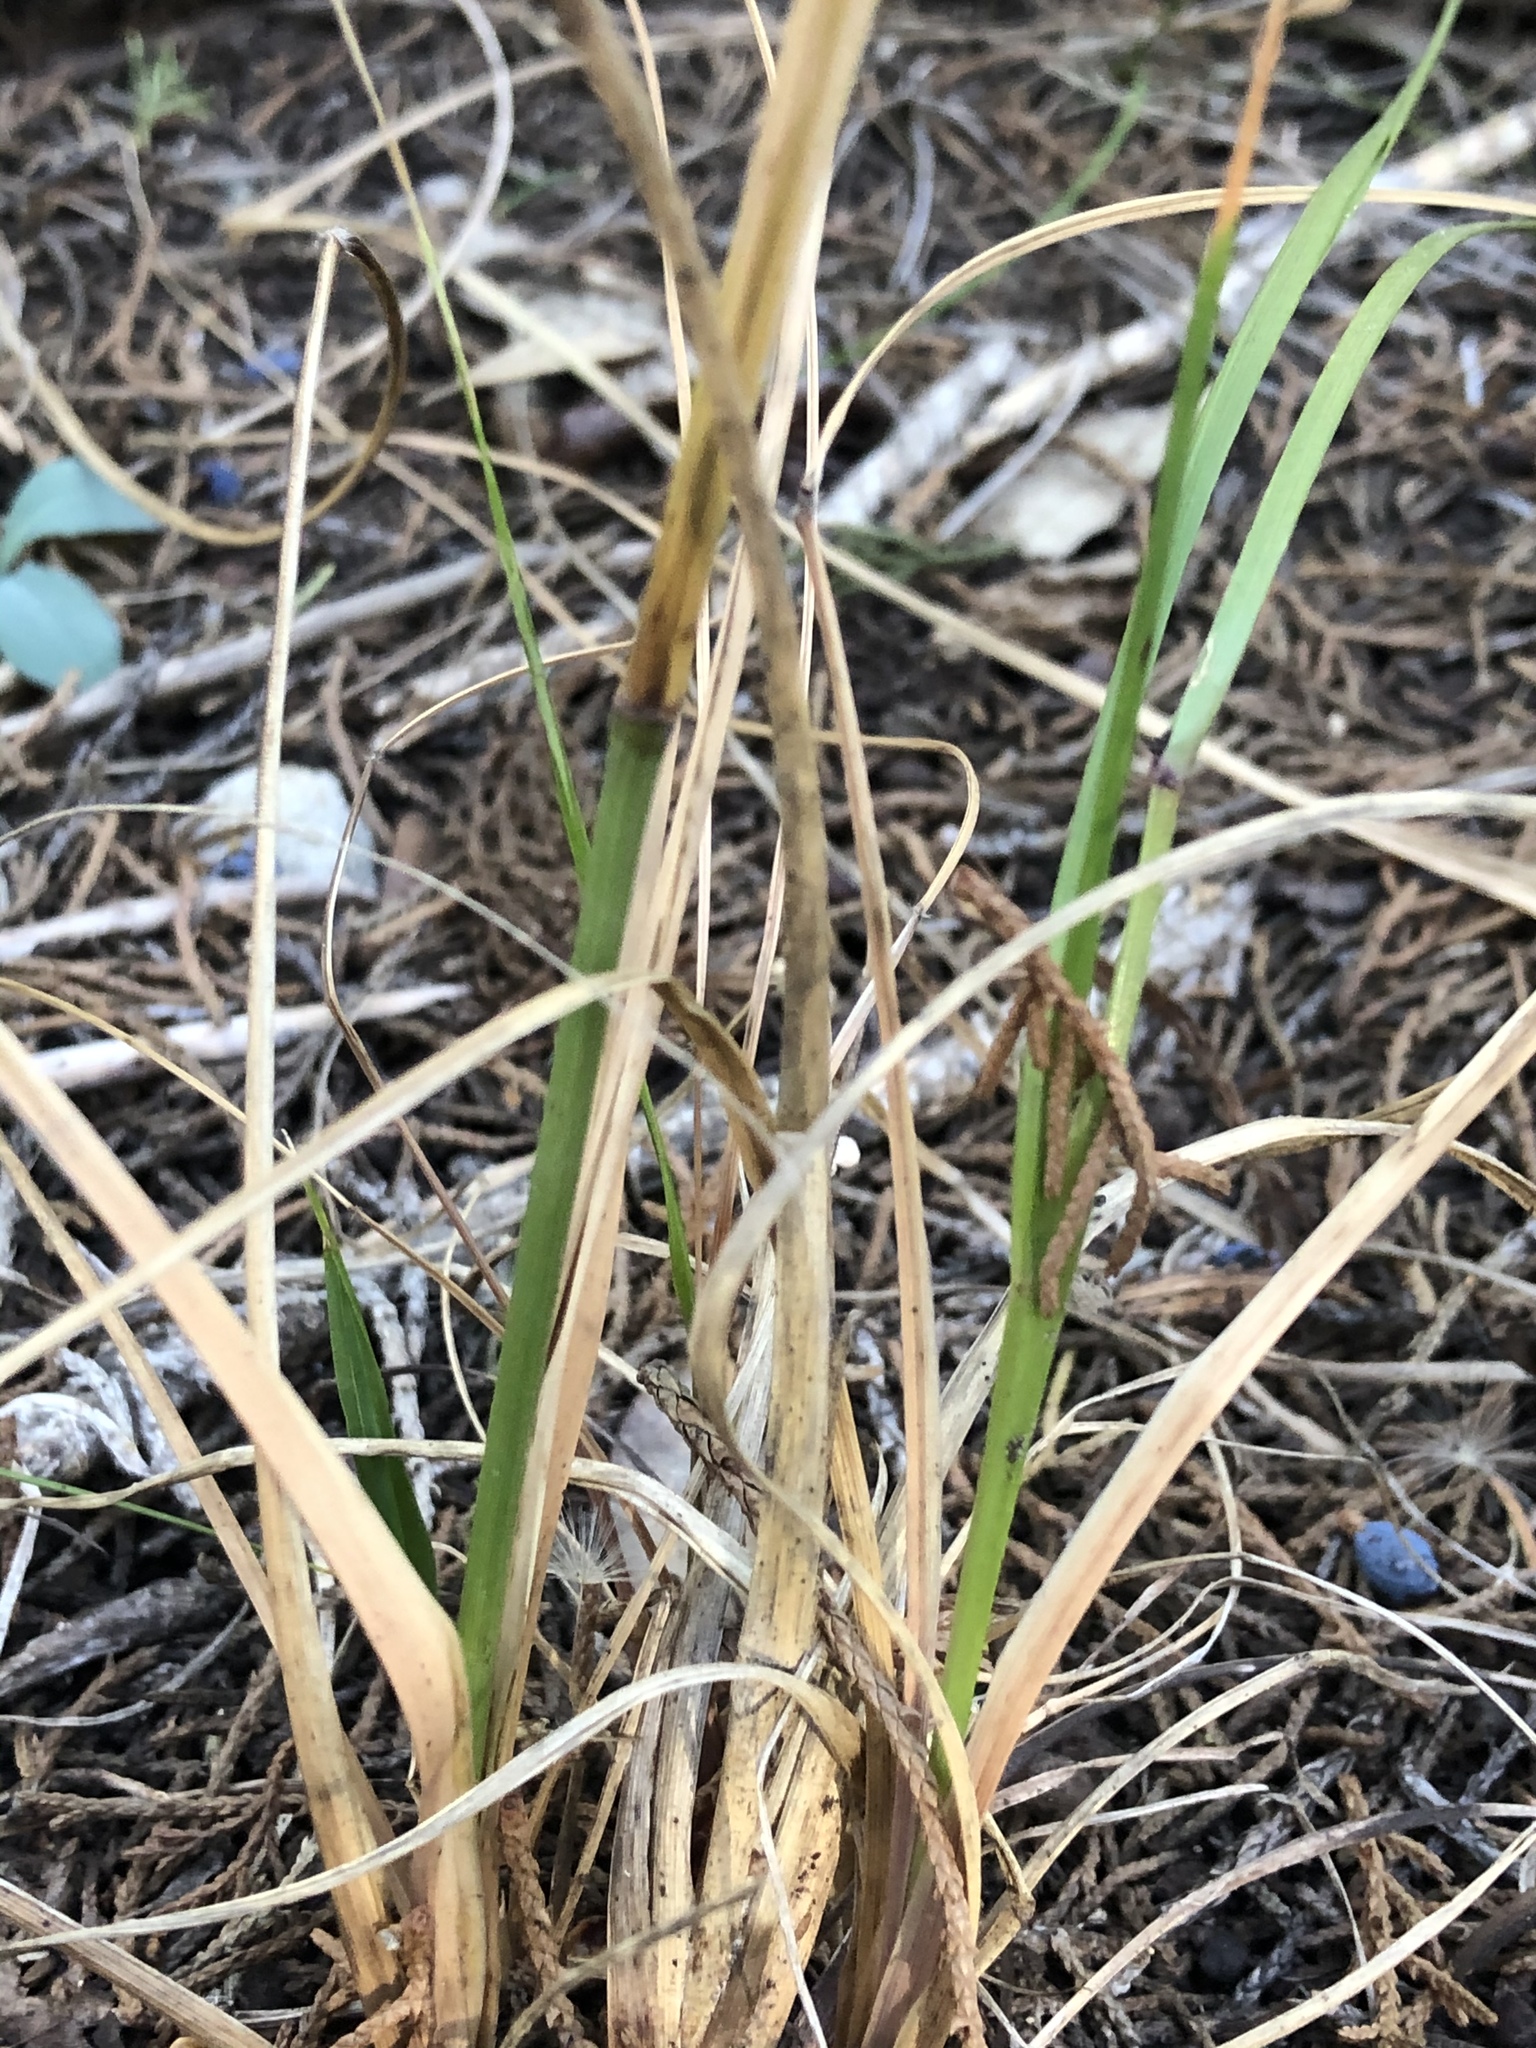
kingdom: Plantae
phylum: Tracheophyta
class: Liliopsida
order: Poales
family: Poaceae
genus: Tridens
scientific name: Tridens flavus
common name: Purpletop
